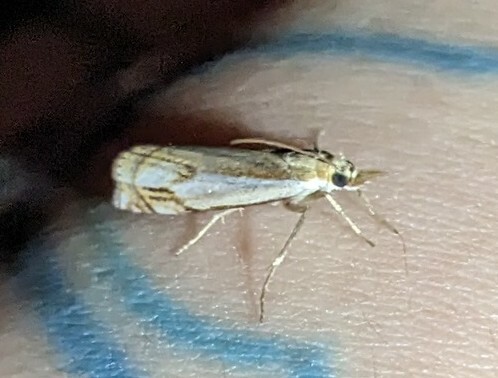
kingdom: Animalia
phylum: Arthropoda
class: Insecta
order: Lepidoptera
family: Crambidae
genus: Crambus
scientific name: Crambus agitatellus
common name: Double-banded grass-veneer
